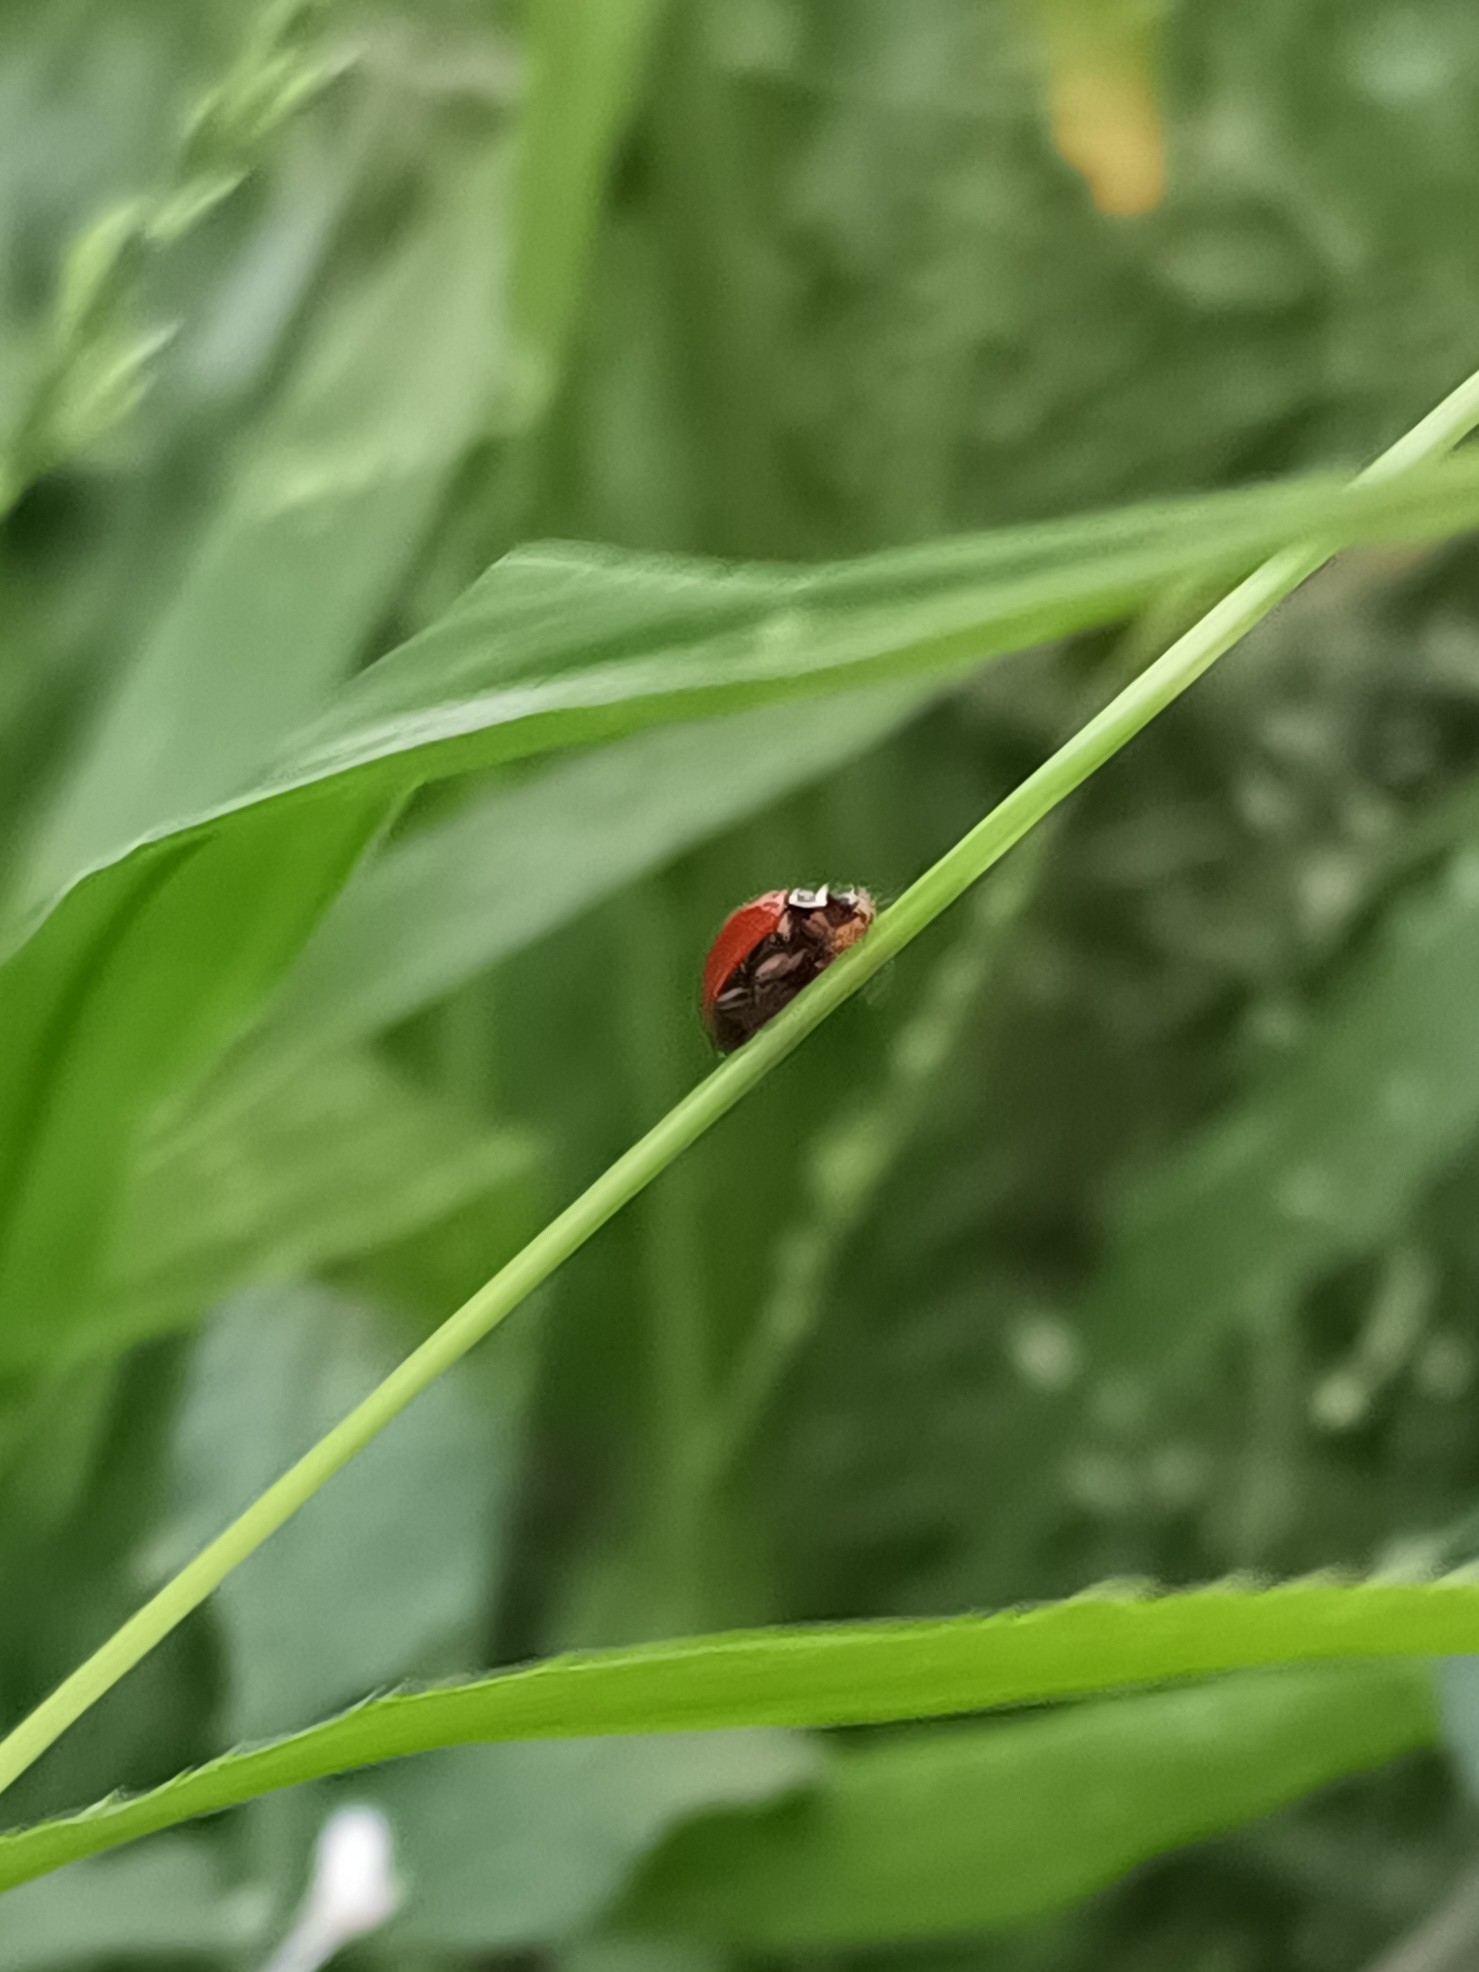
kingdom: Animalia
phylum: Arthropoda
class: Insecta
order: Coleoptera
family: Coccinellidae
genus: Cycloneda
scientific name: Cycloneda sanguinea
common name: Ladybird beetle
